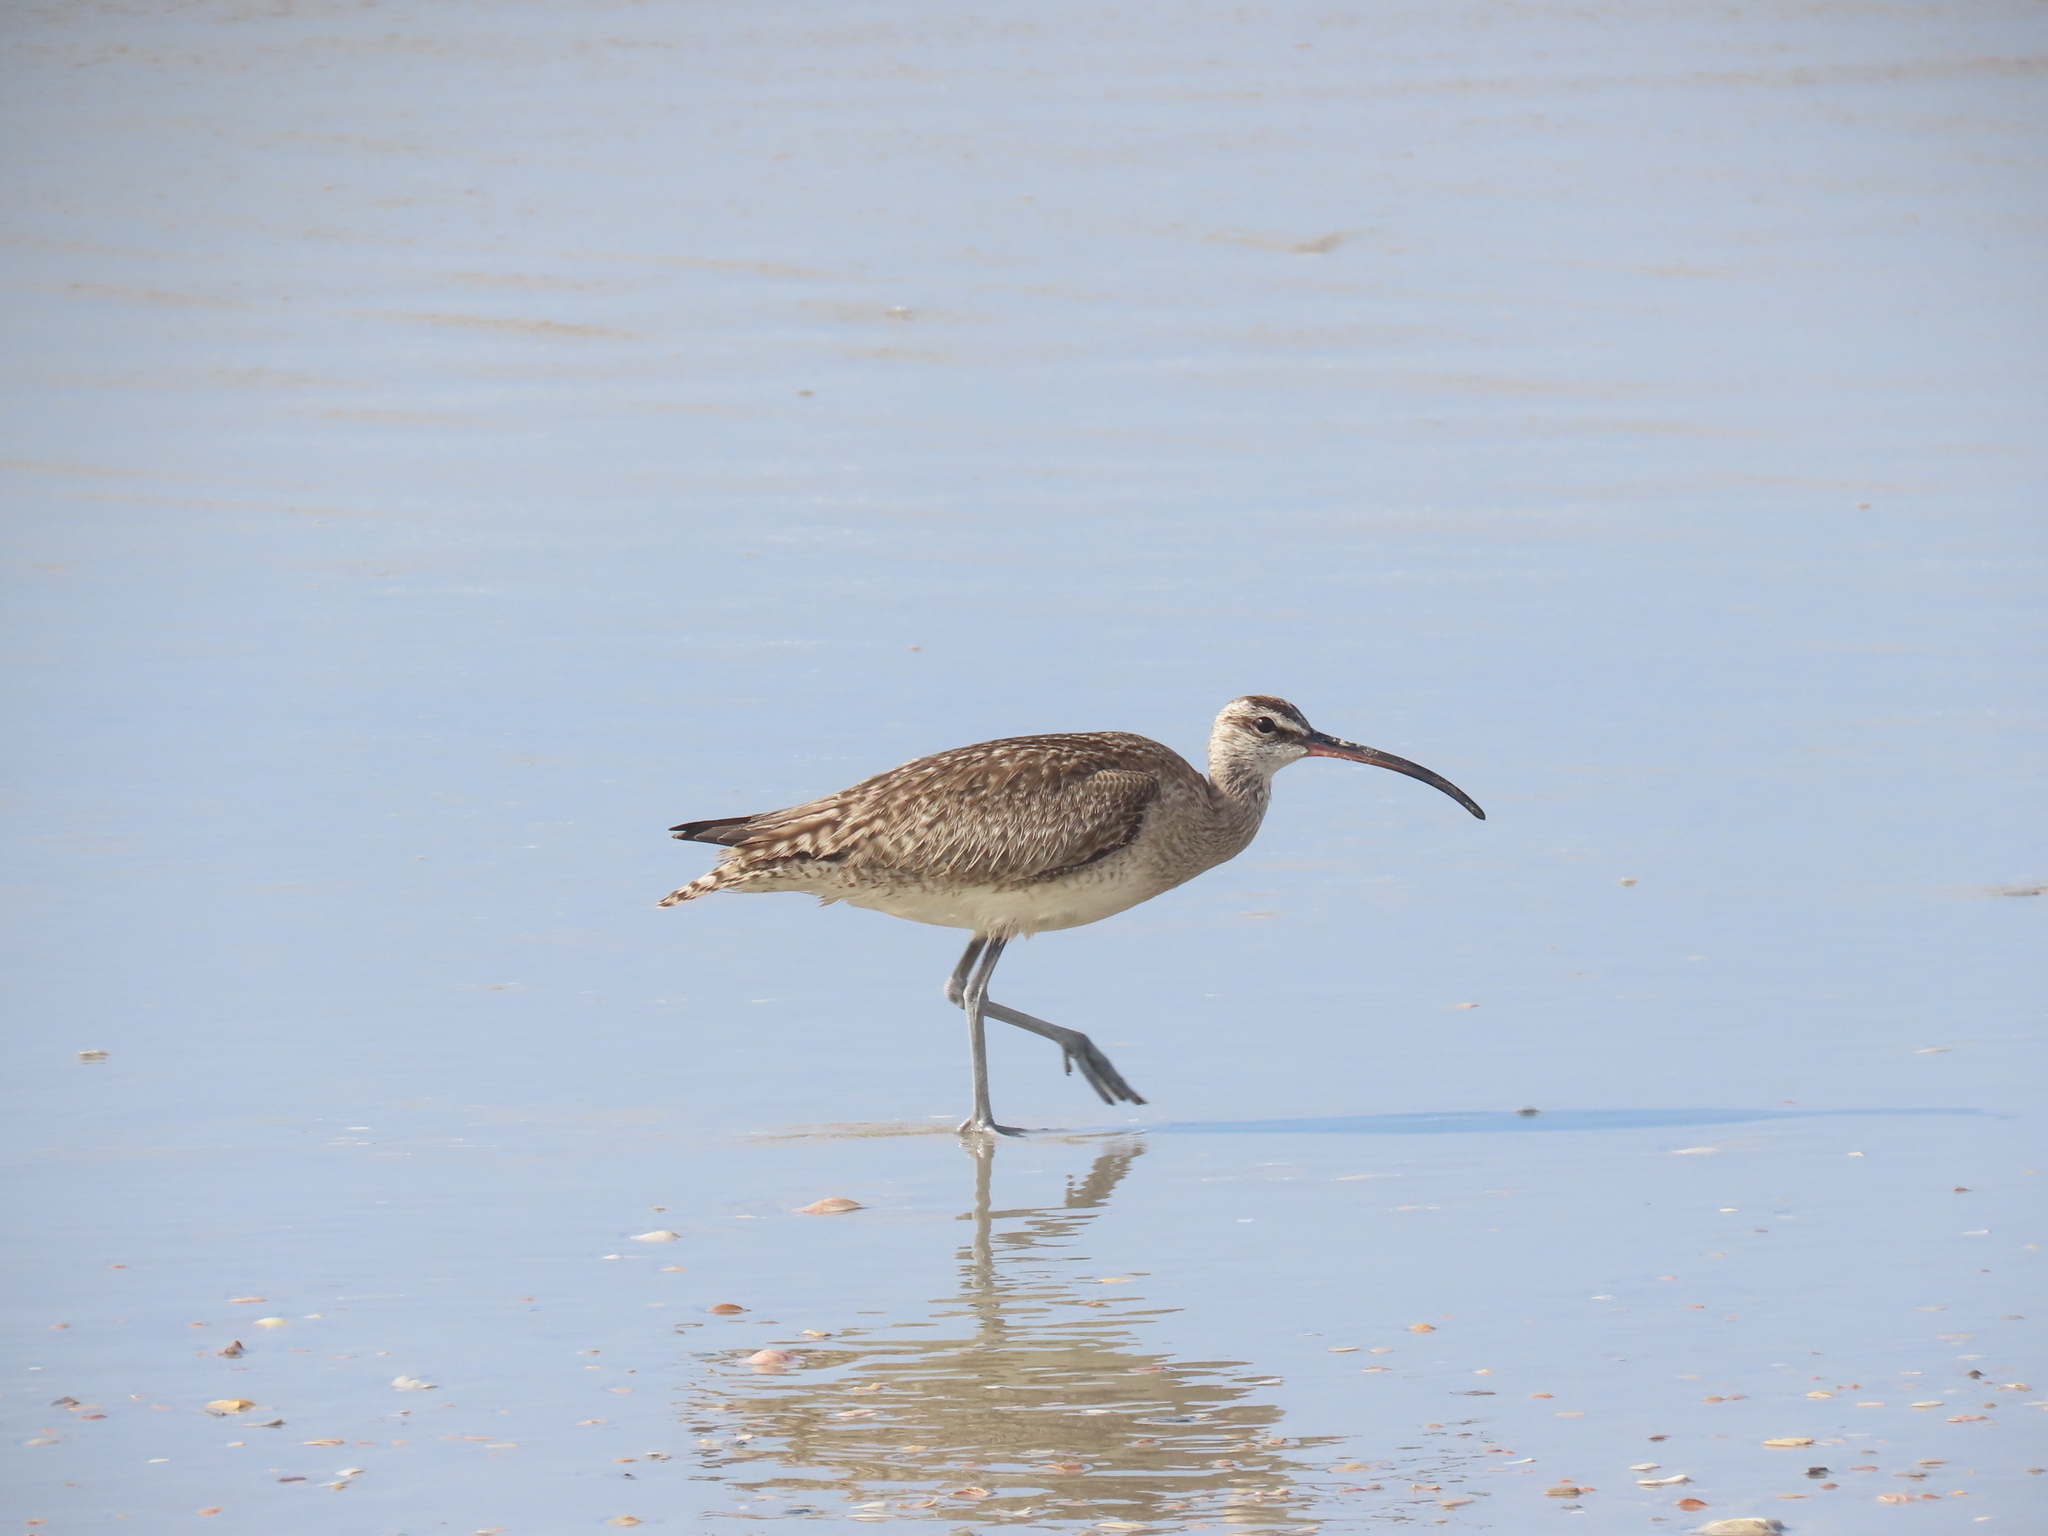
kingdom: Animalia
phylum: Chordata
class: Aves
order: Charadriiformes
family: Scolopacidae
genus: Numenius
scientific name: Numenius phaeopus
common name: Whimbrel
